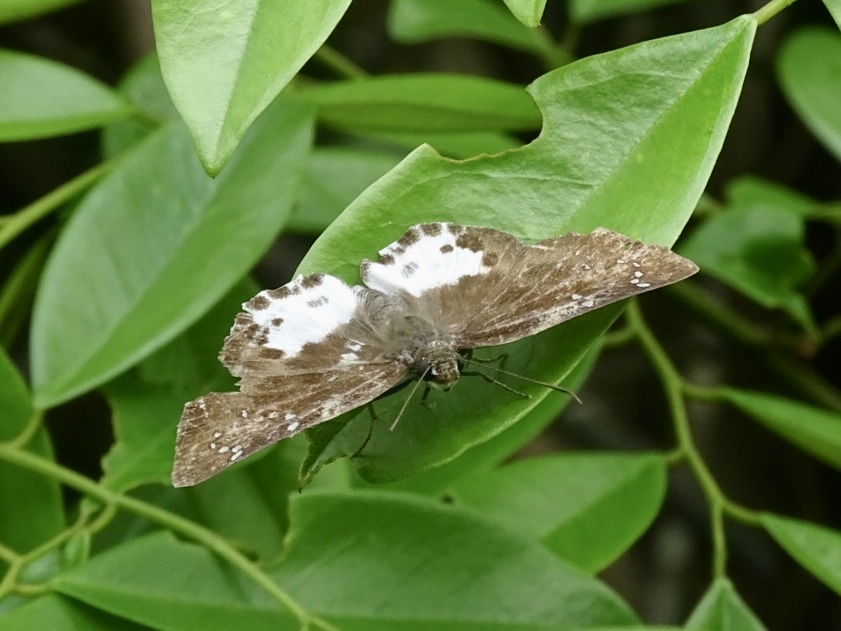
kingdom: Animalia
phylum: Arthropoda
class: Insecta
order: Lepidoptera
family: Hesperiidae
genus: Tagiades
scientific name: Tagiades menaka
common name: Dark-edged snow flat
